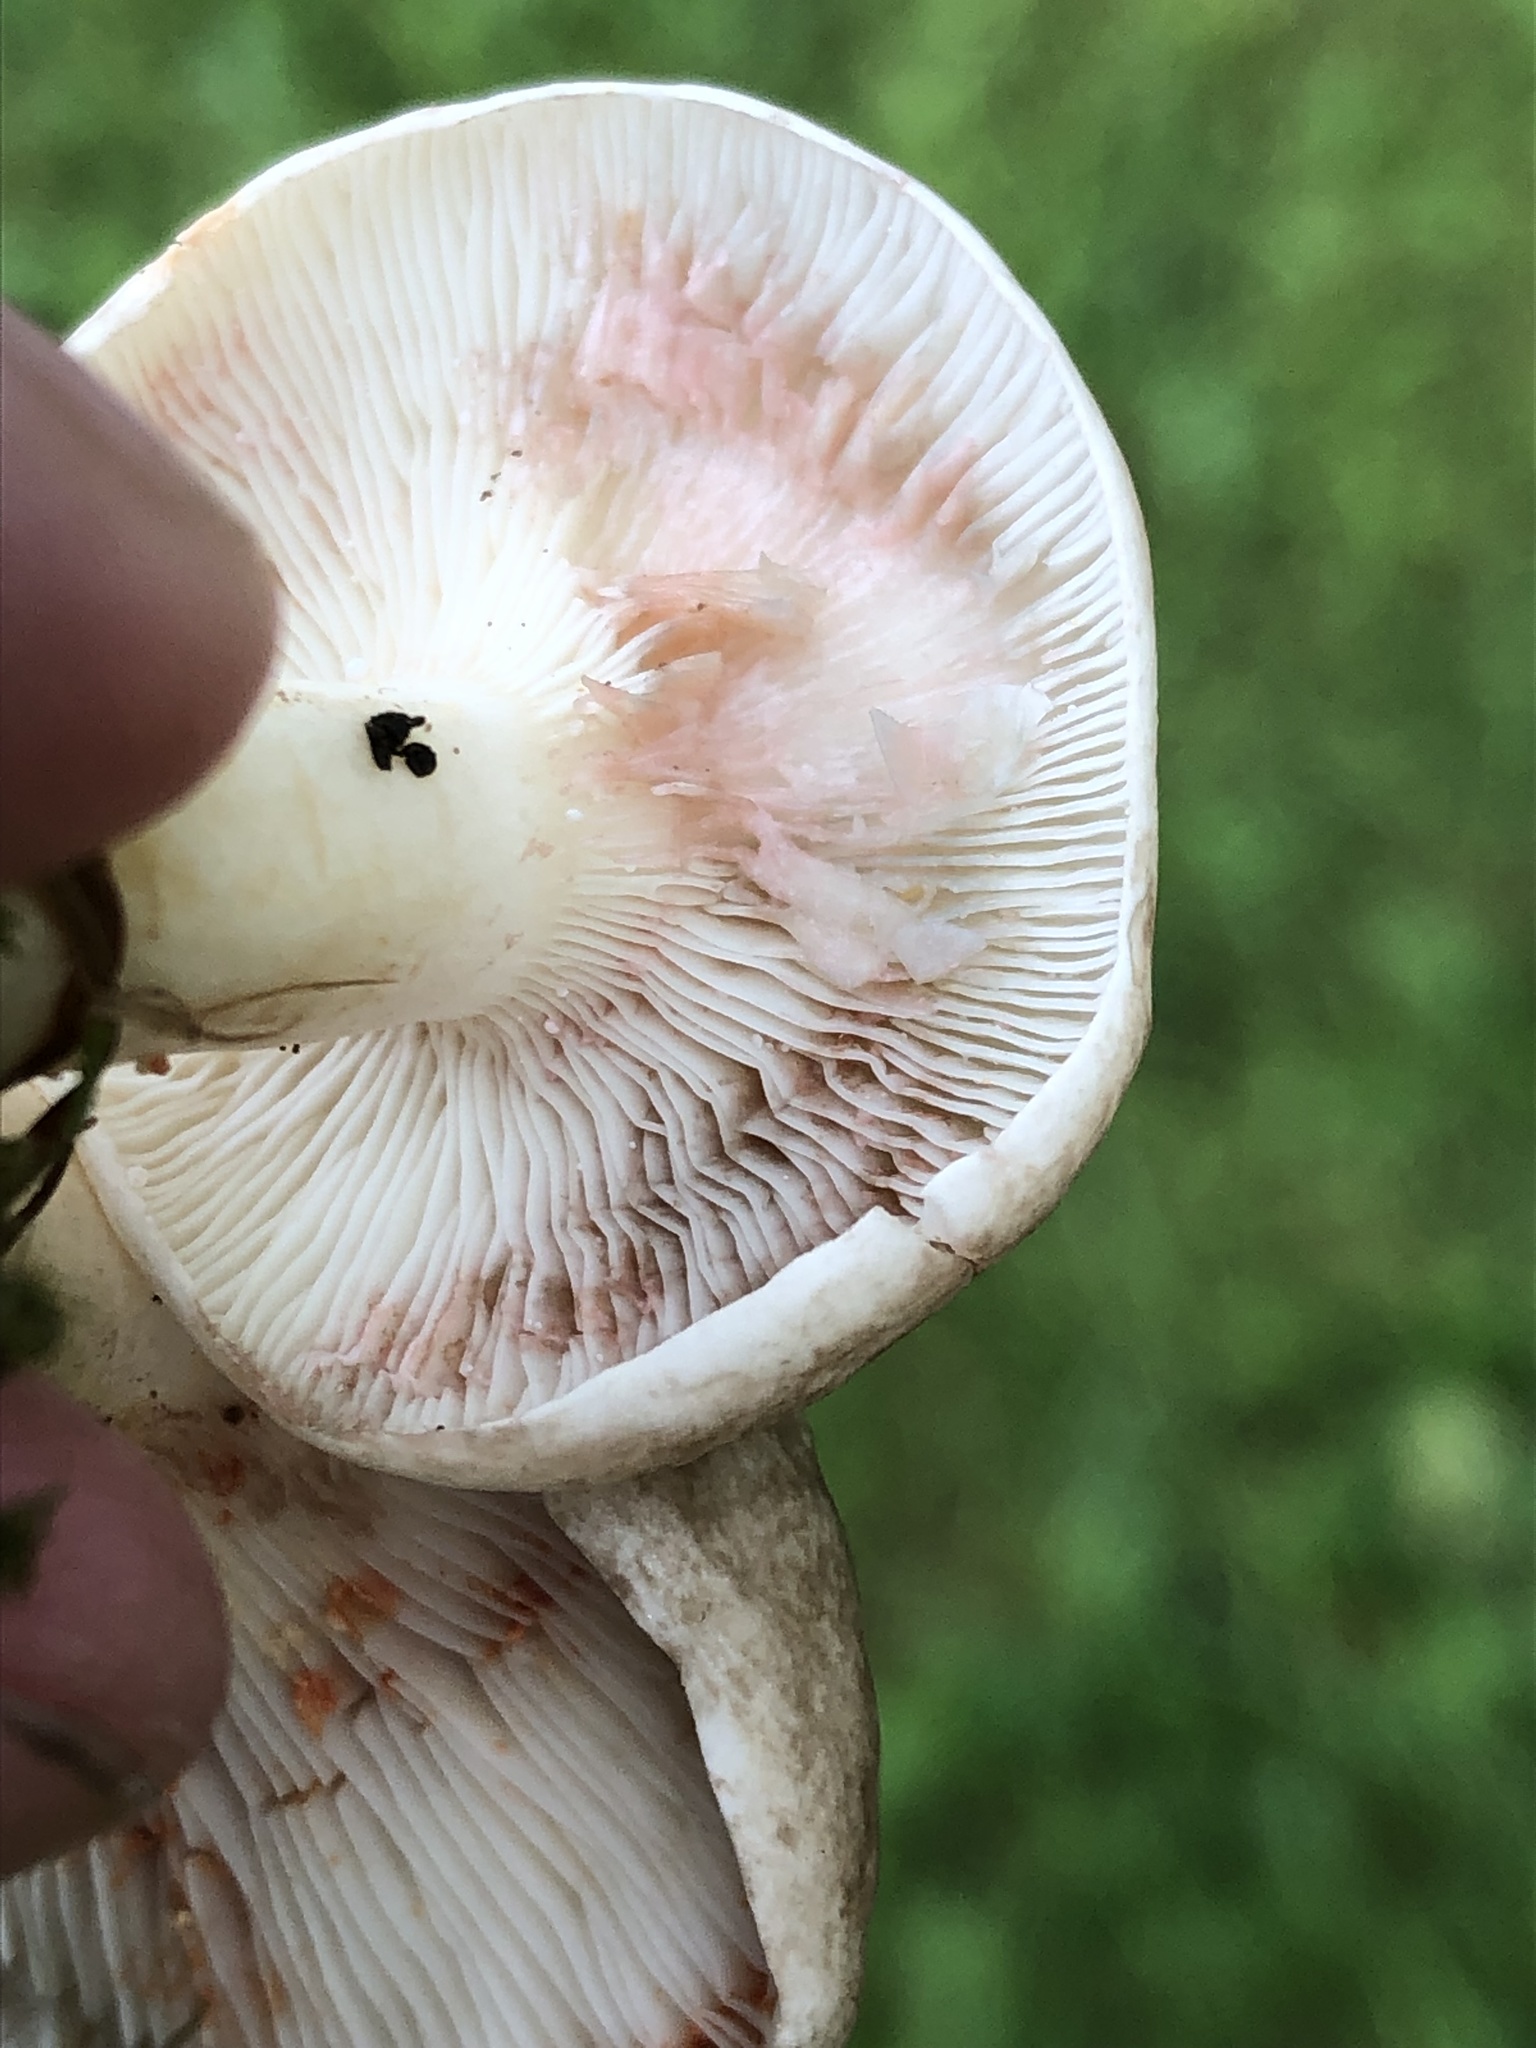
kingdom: Fungi
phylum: Basidiomycota
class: Agaricomycetes
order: Russulales
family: Russulaceae
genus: Lactarius
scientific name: Lactarius subvernalis
